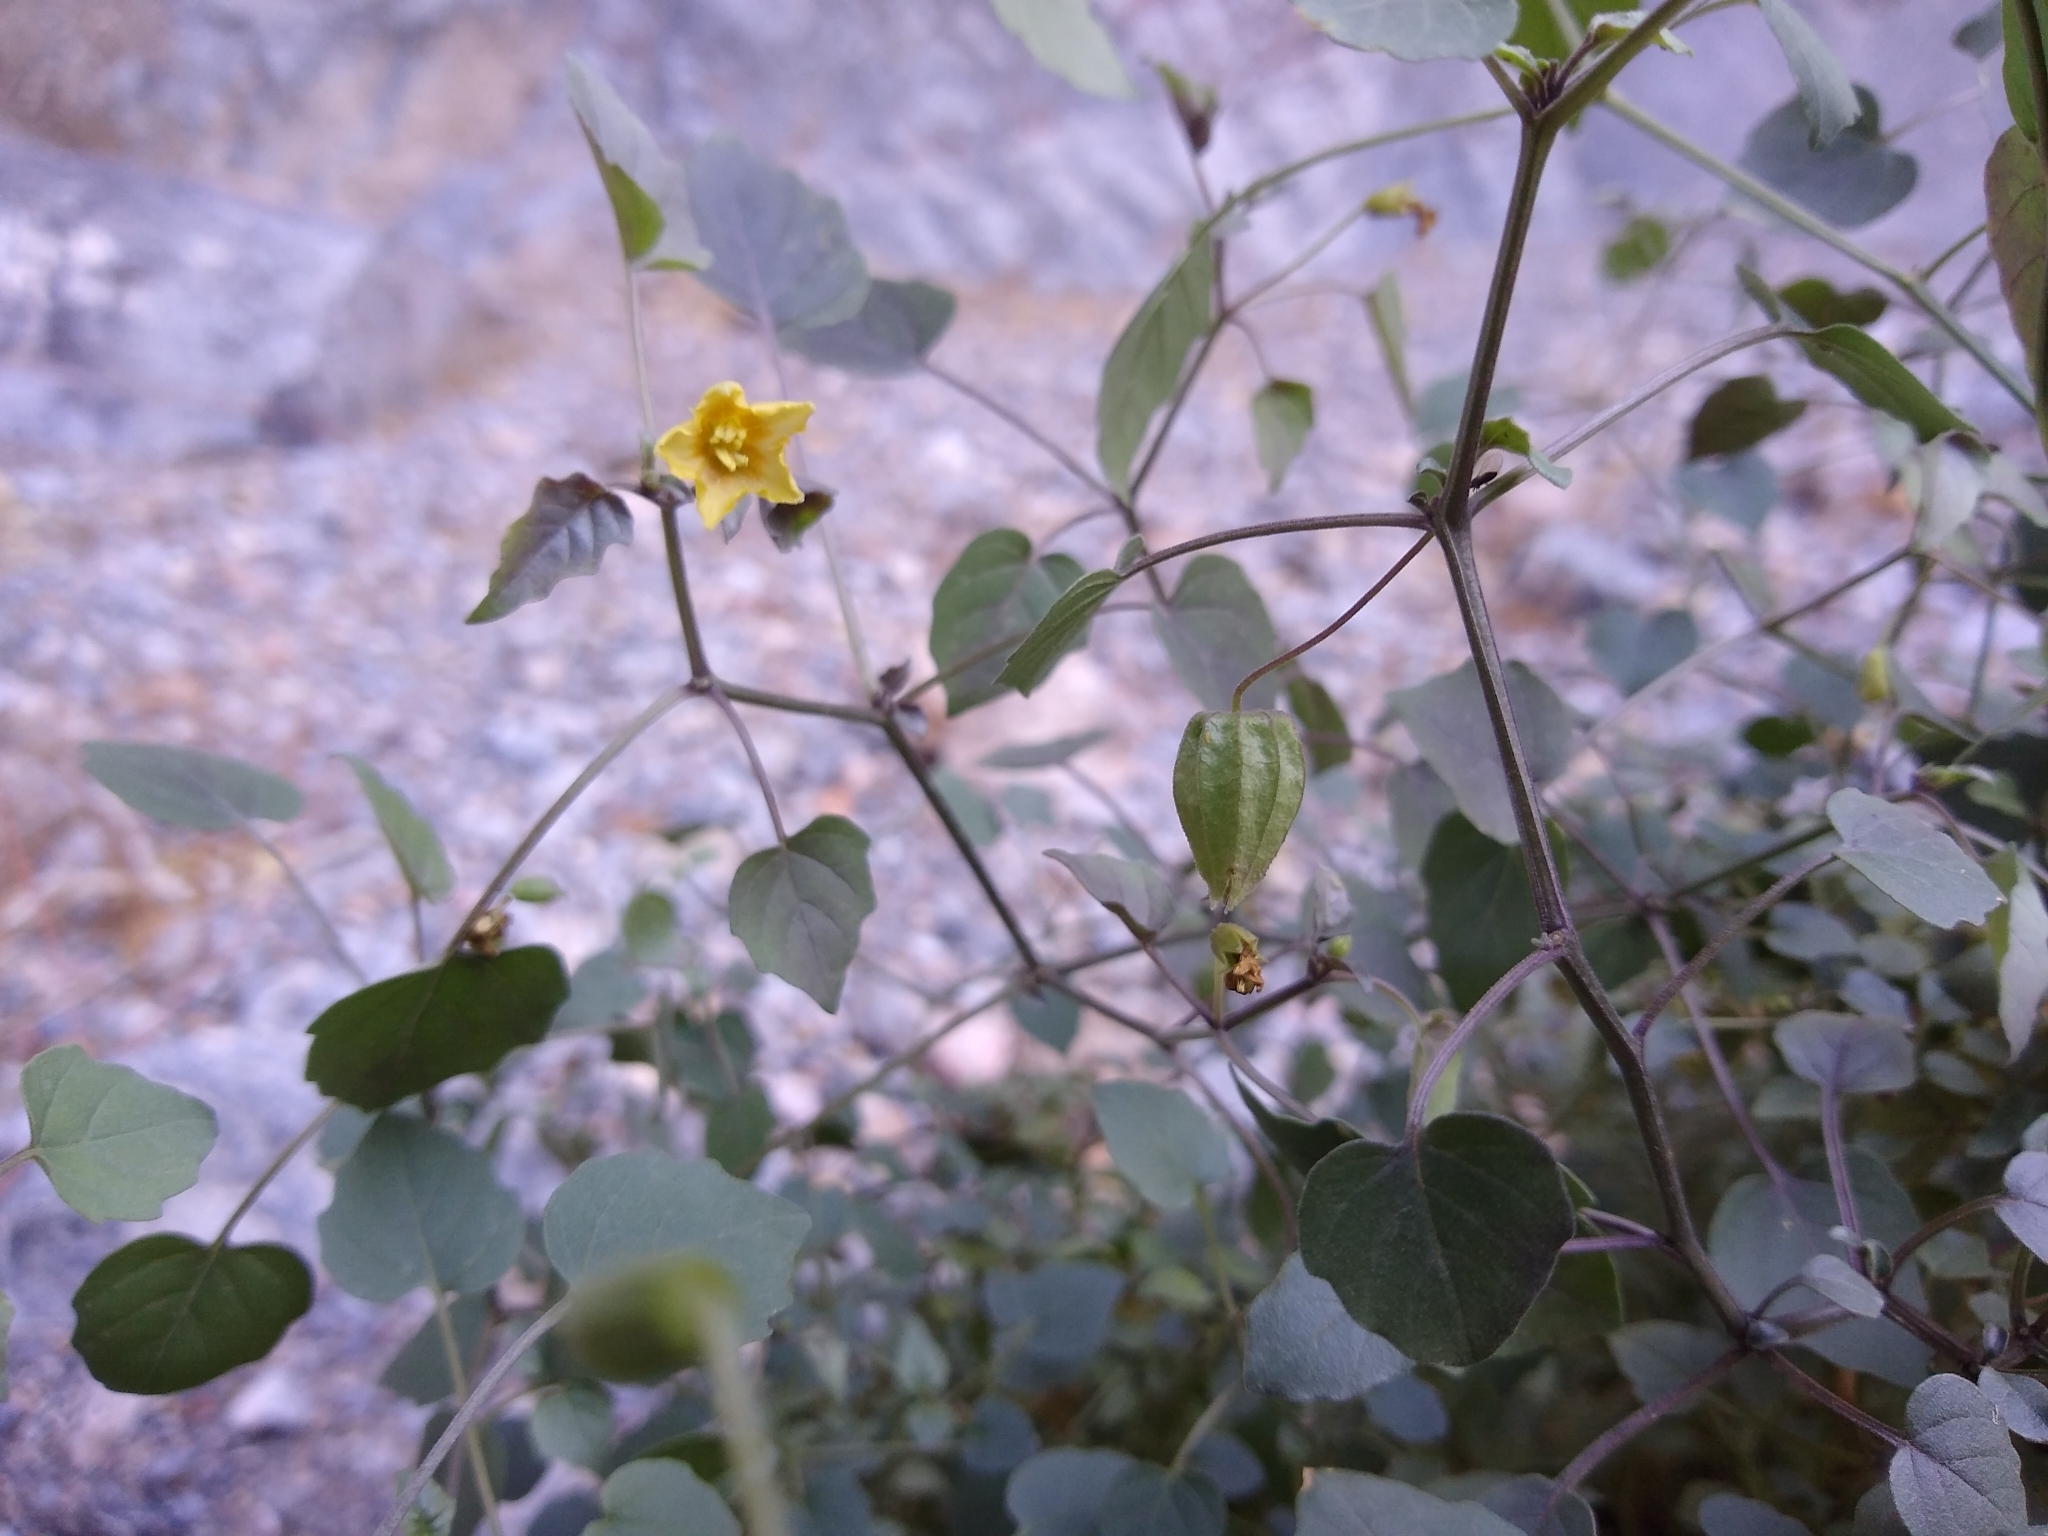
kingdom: Plantae
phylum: Tracheophyta
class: Magnoliopsida
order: Solanales
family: Solanaceae
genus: Physalis
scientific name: Physalis crassifolia
